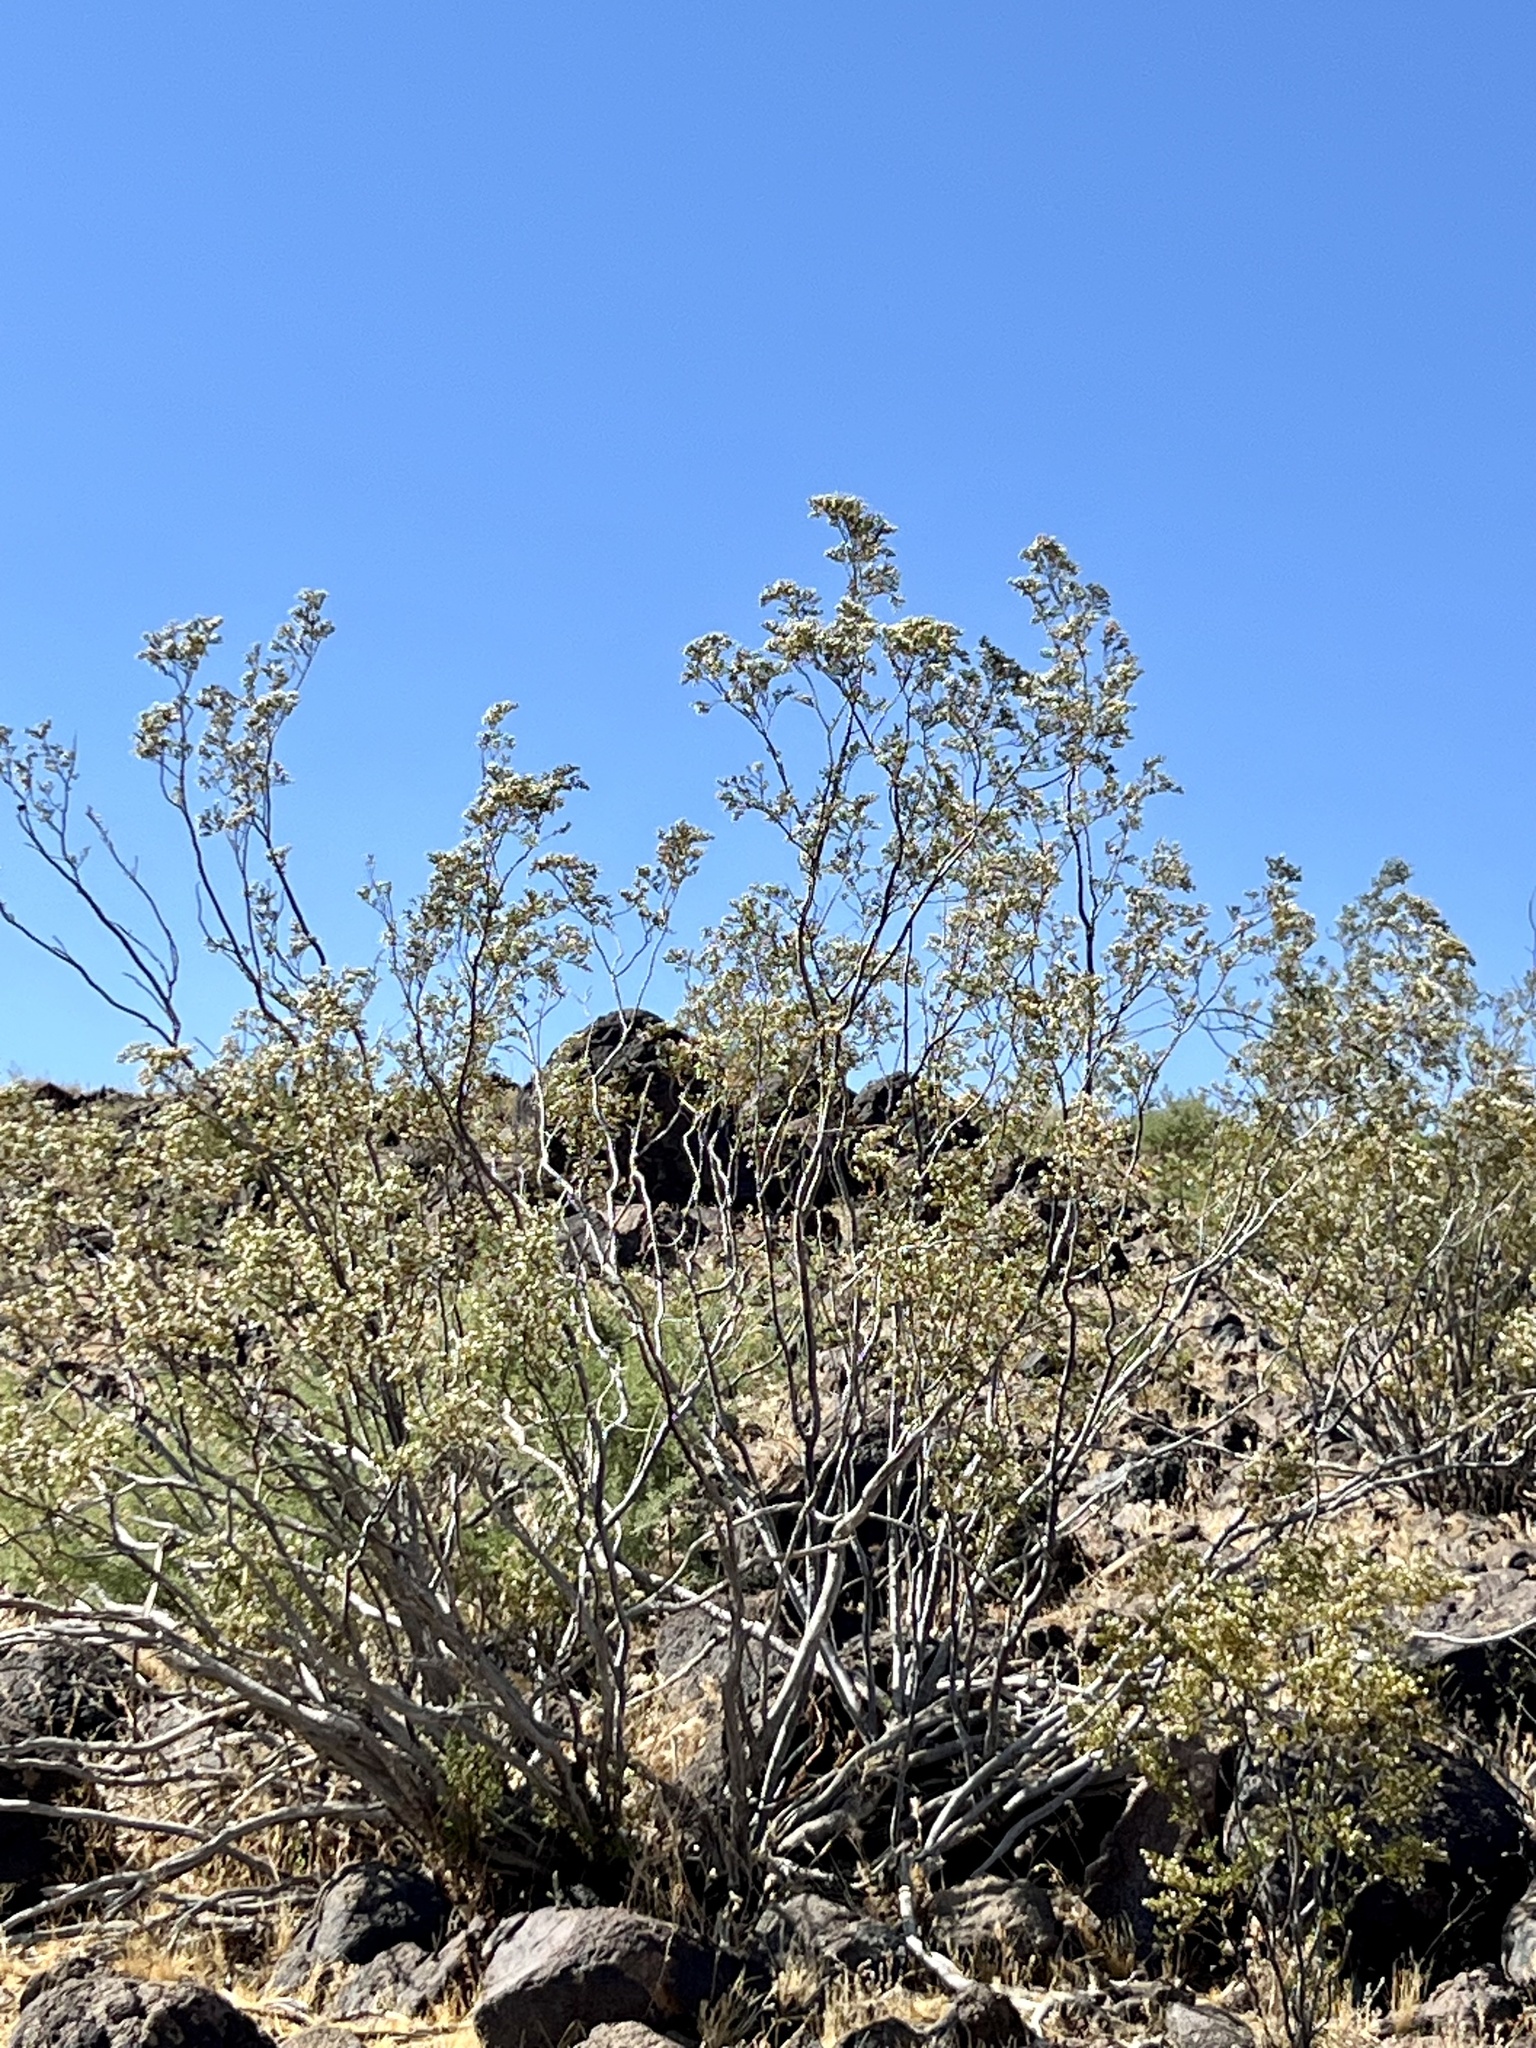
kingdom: Plantae
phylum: Tracheophyta
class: Magnoliopsida
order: Zygophyllales
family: Zygophyllaceae
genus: Larrea
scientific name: Larrea tridentata
